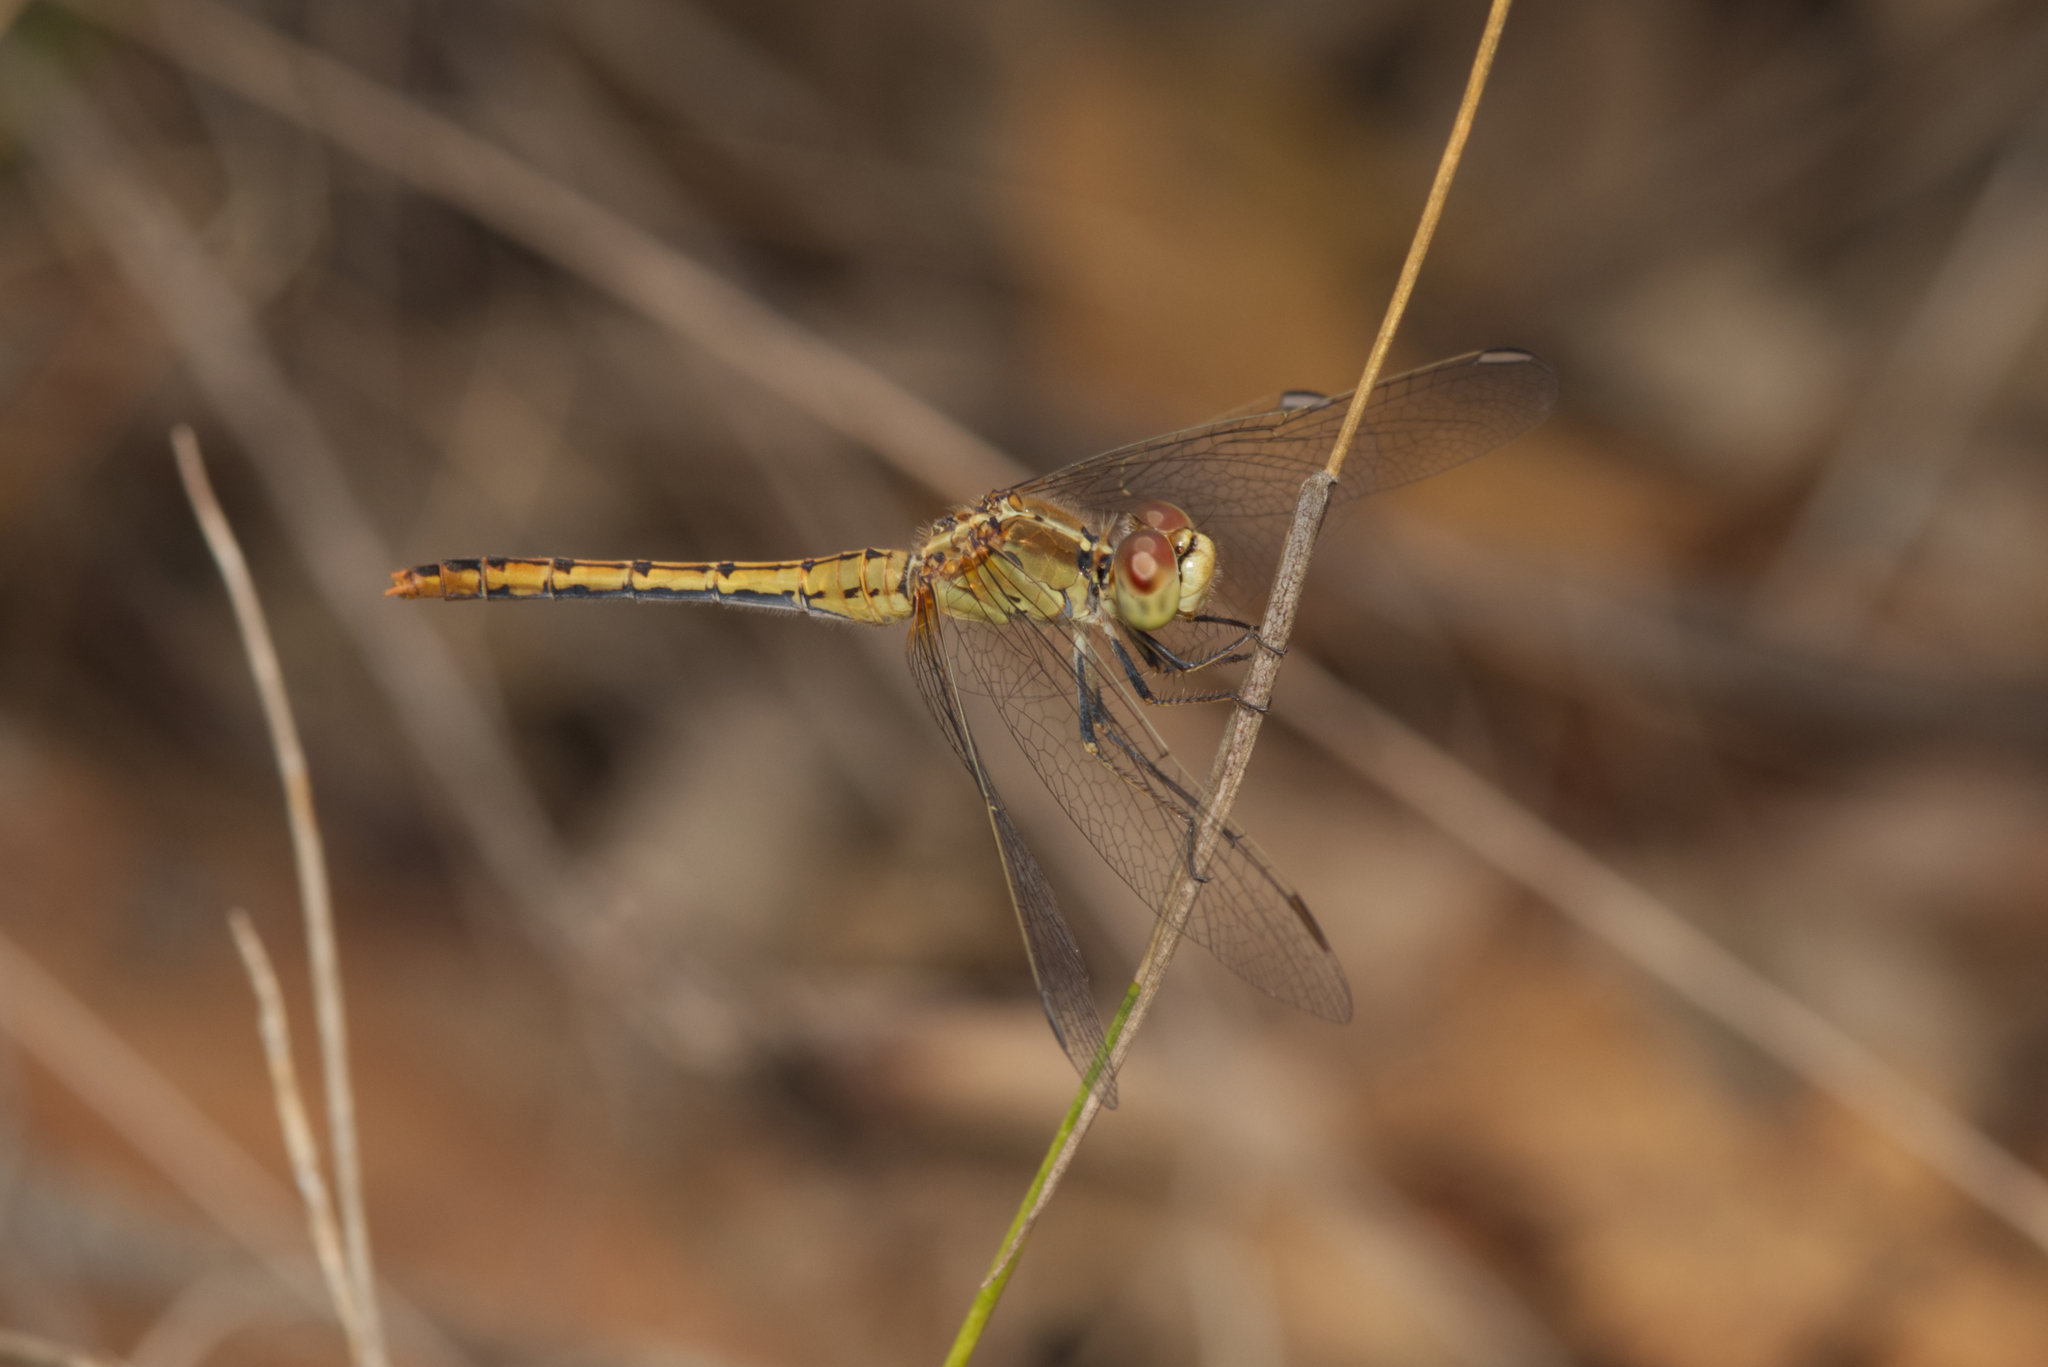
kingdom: Animalia
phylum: Arthropoda
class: Insecta
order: Odonata
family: Libellulidae
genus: Diplacodes
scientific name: Diplacodes bipunctata
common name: Red percher dragonfly
